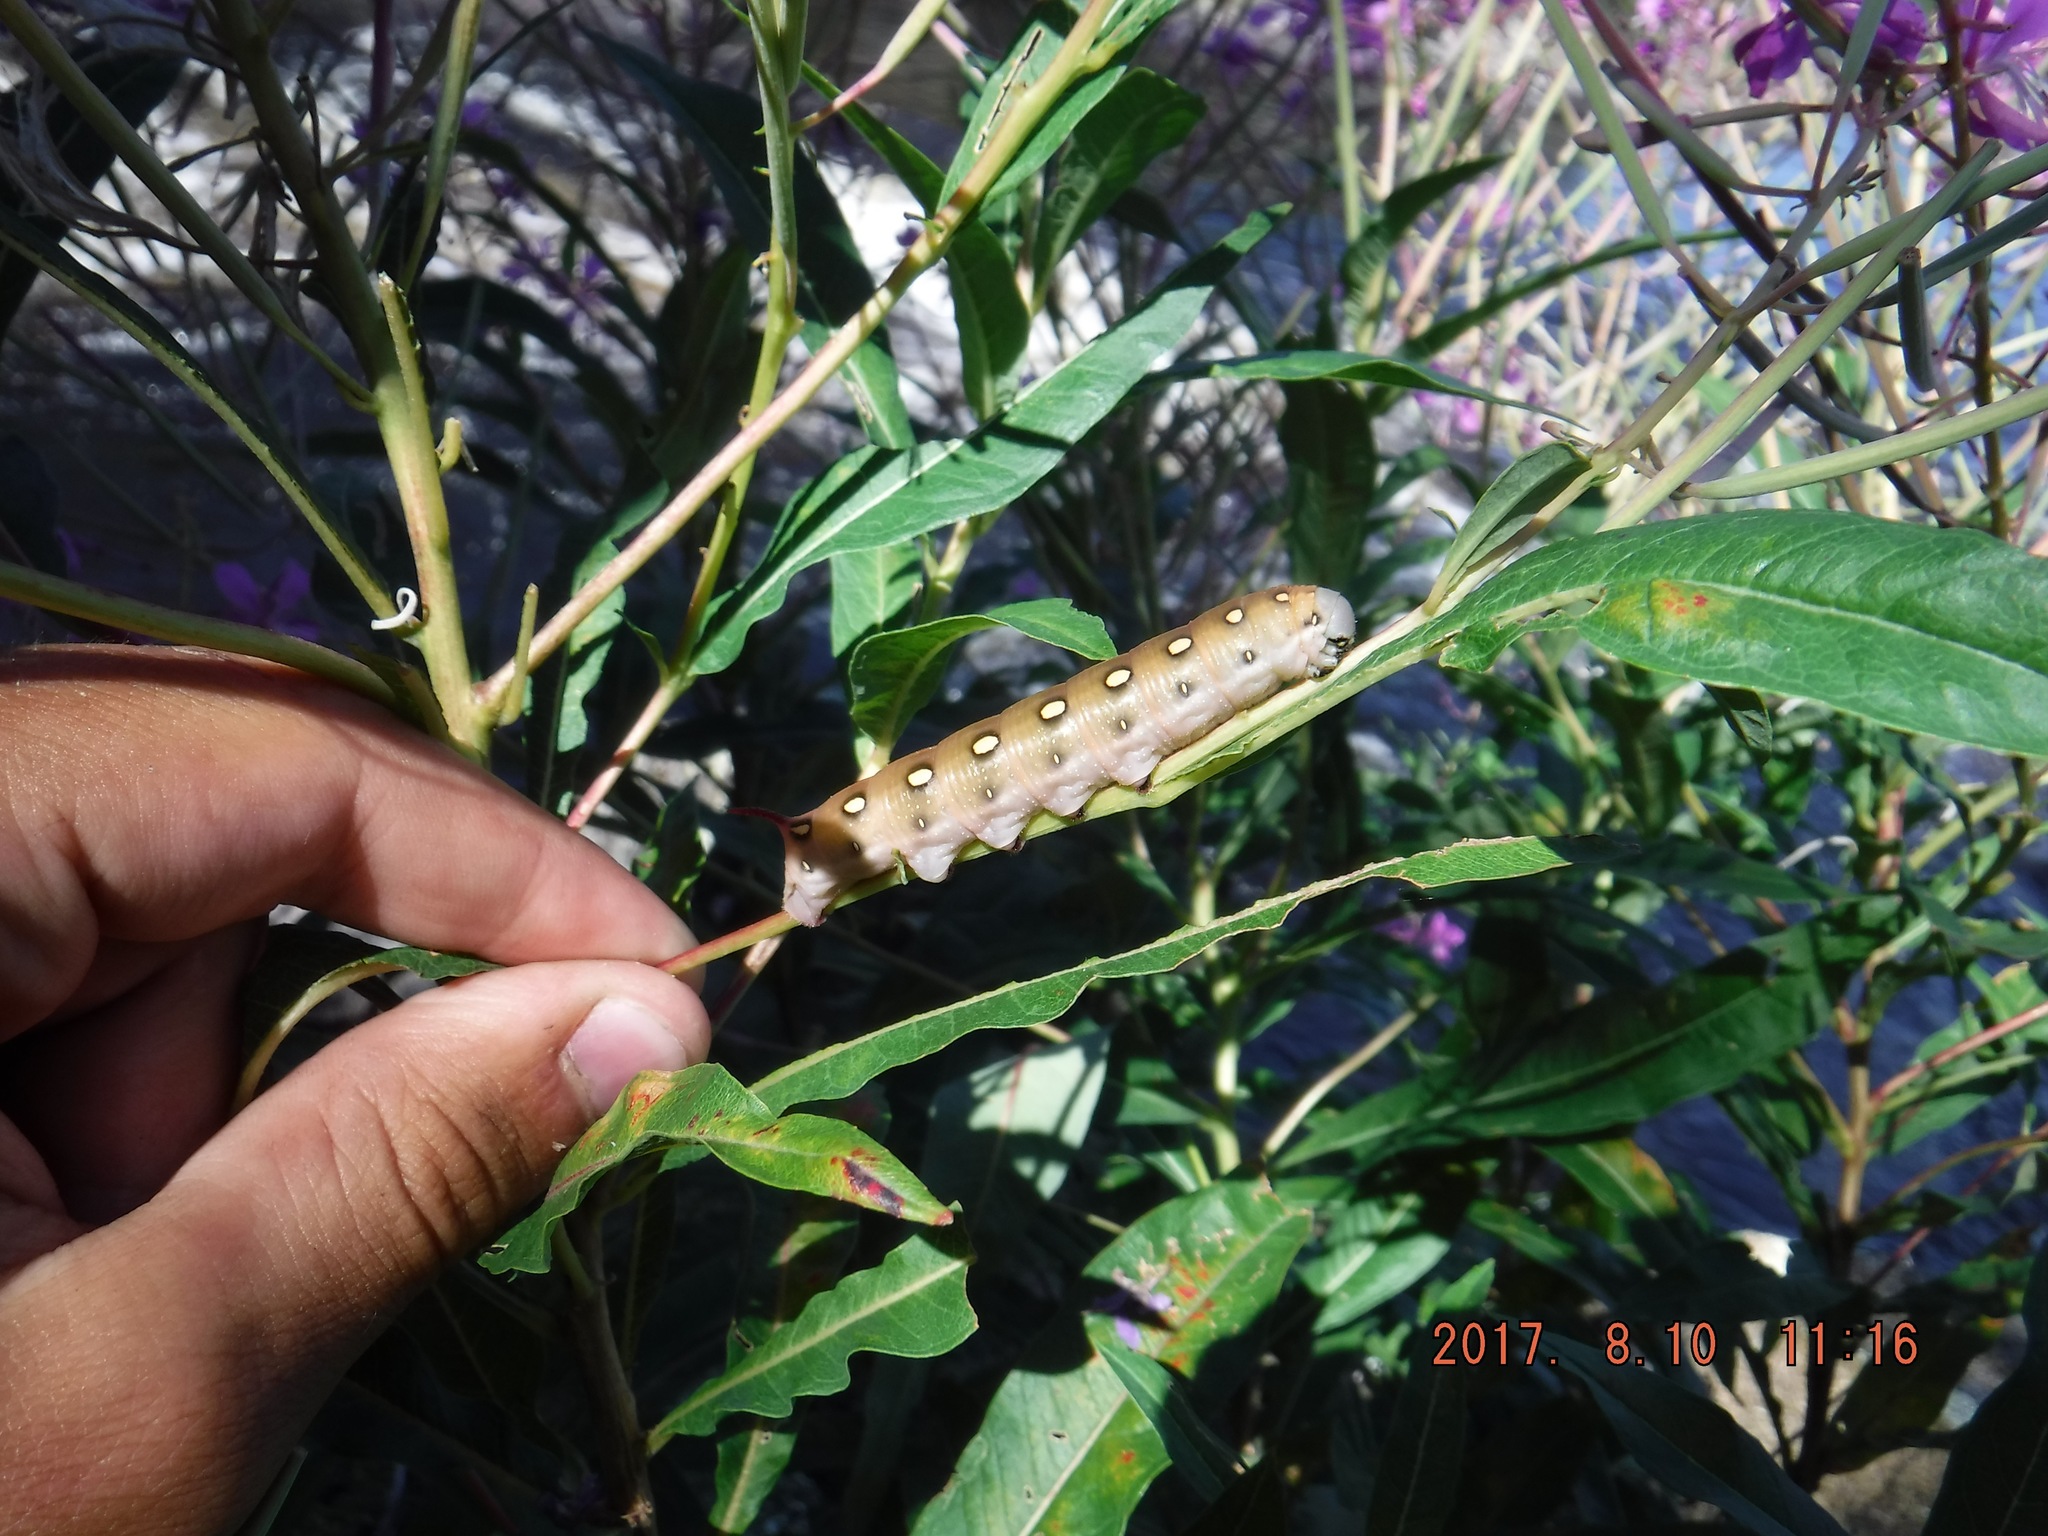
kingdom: Animalia
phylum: Arthropoda
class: Insecta
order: Lepidoptera
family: Sphingidae
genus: Hyles
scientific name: Hyles gallii
